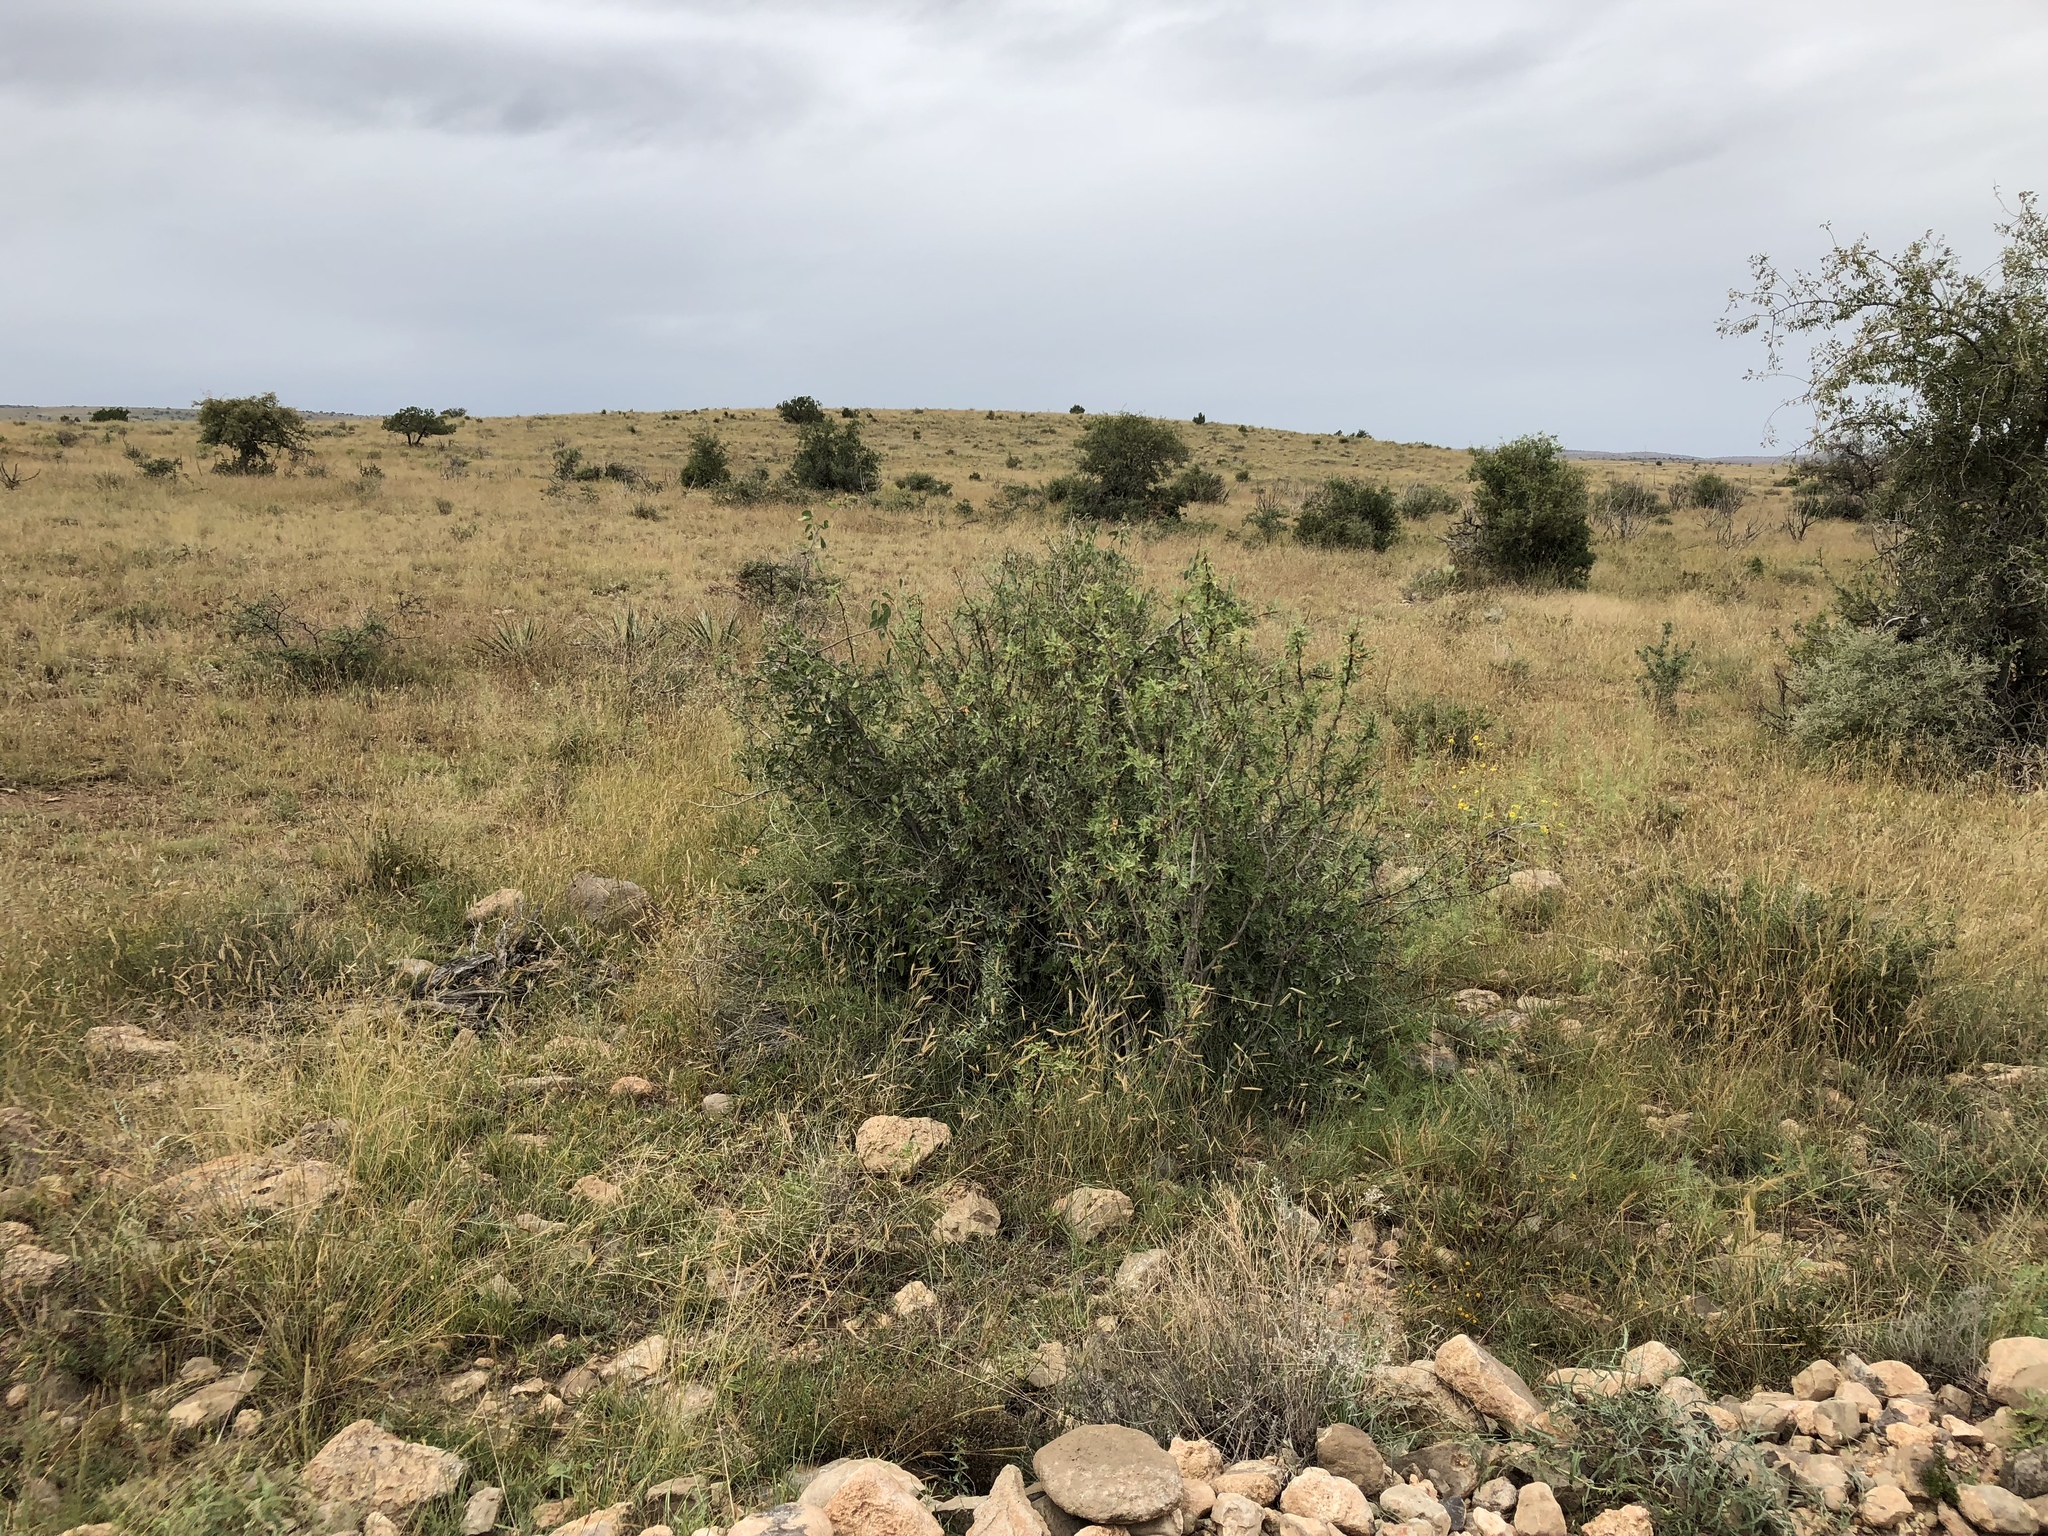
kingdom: Plantae
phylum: Tracheophyta
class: Magnoliopsida
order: Ranunculales
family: Berberidaceae
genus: Alloberberis
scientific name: Alloberberis trifoliolata
